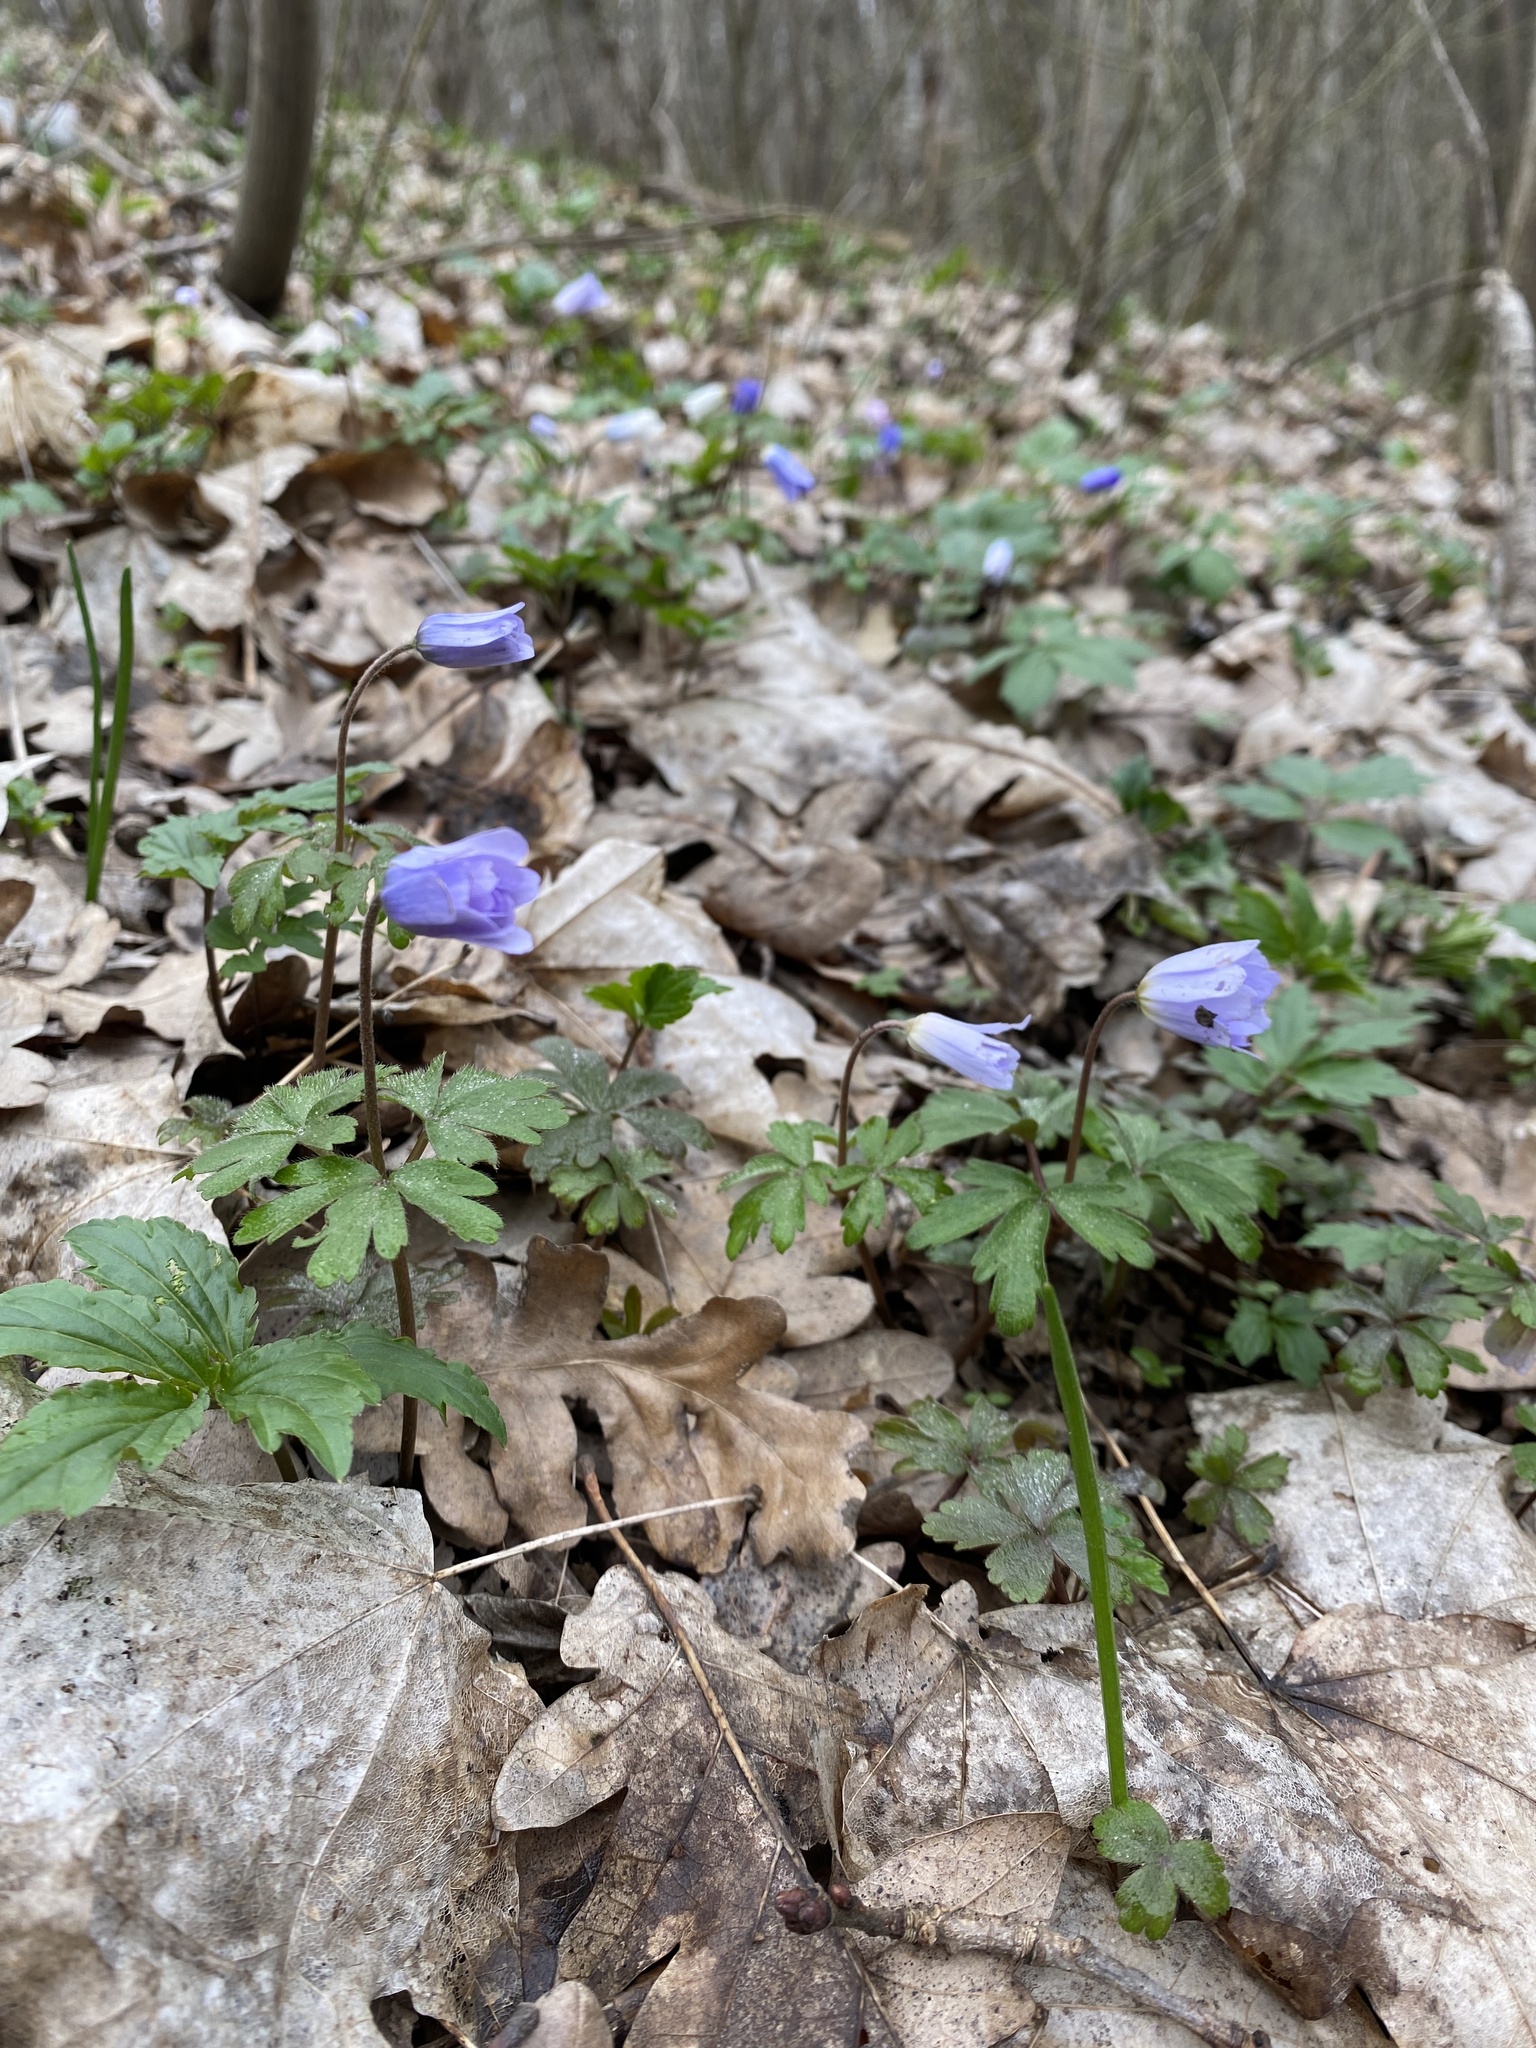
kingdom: Plantae
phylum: Tracheophyta
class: Magnoliopsida
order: Ranunculales
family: Ranunculaceae
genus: Anemone
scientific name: Anemone blanda
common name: Balkan anemone
